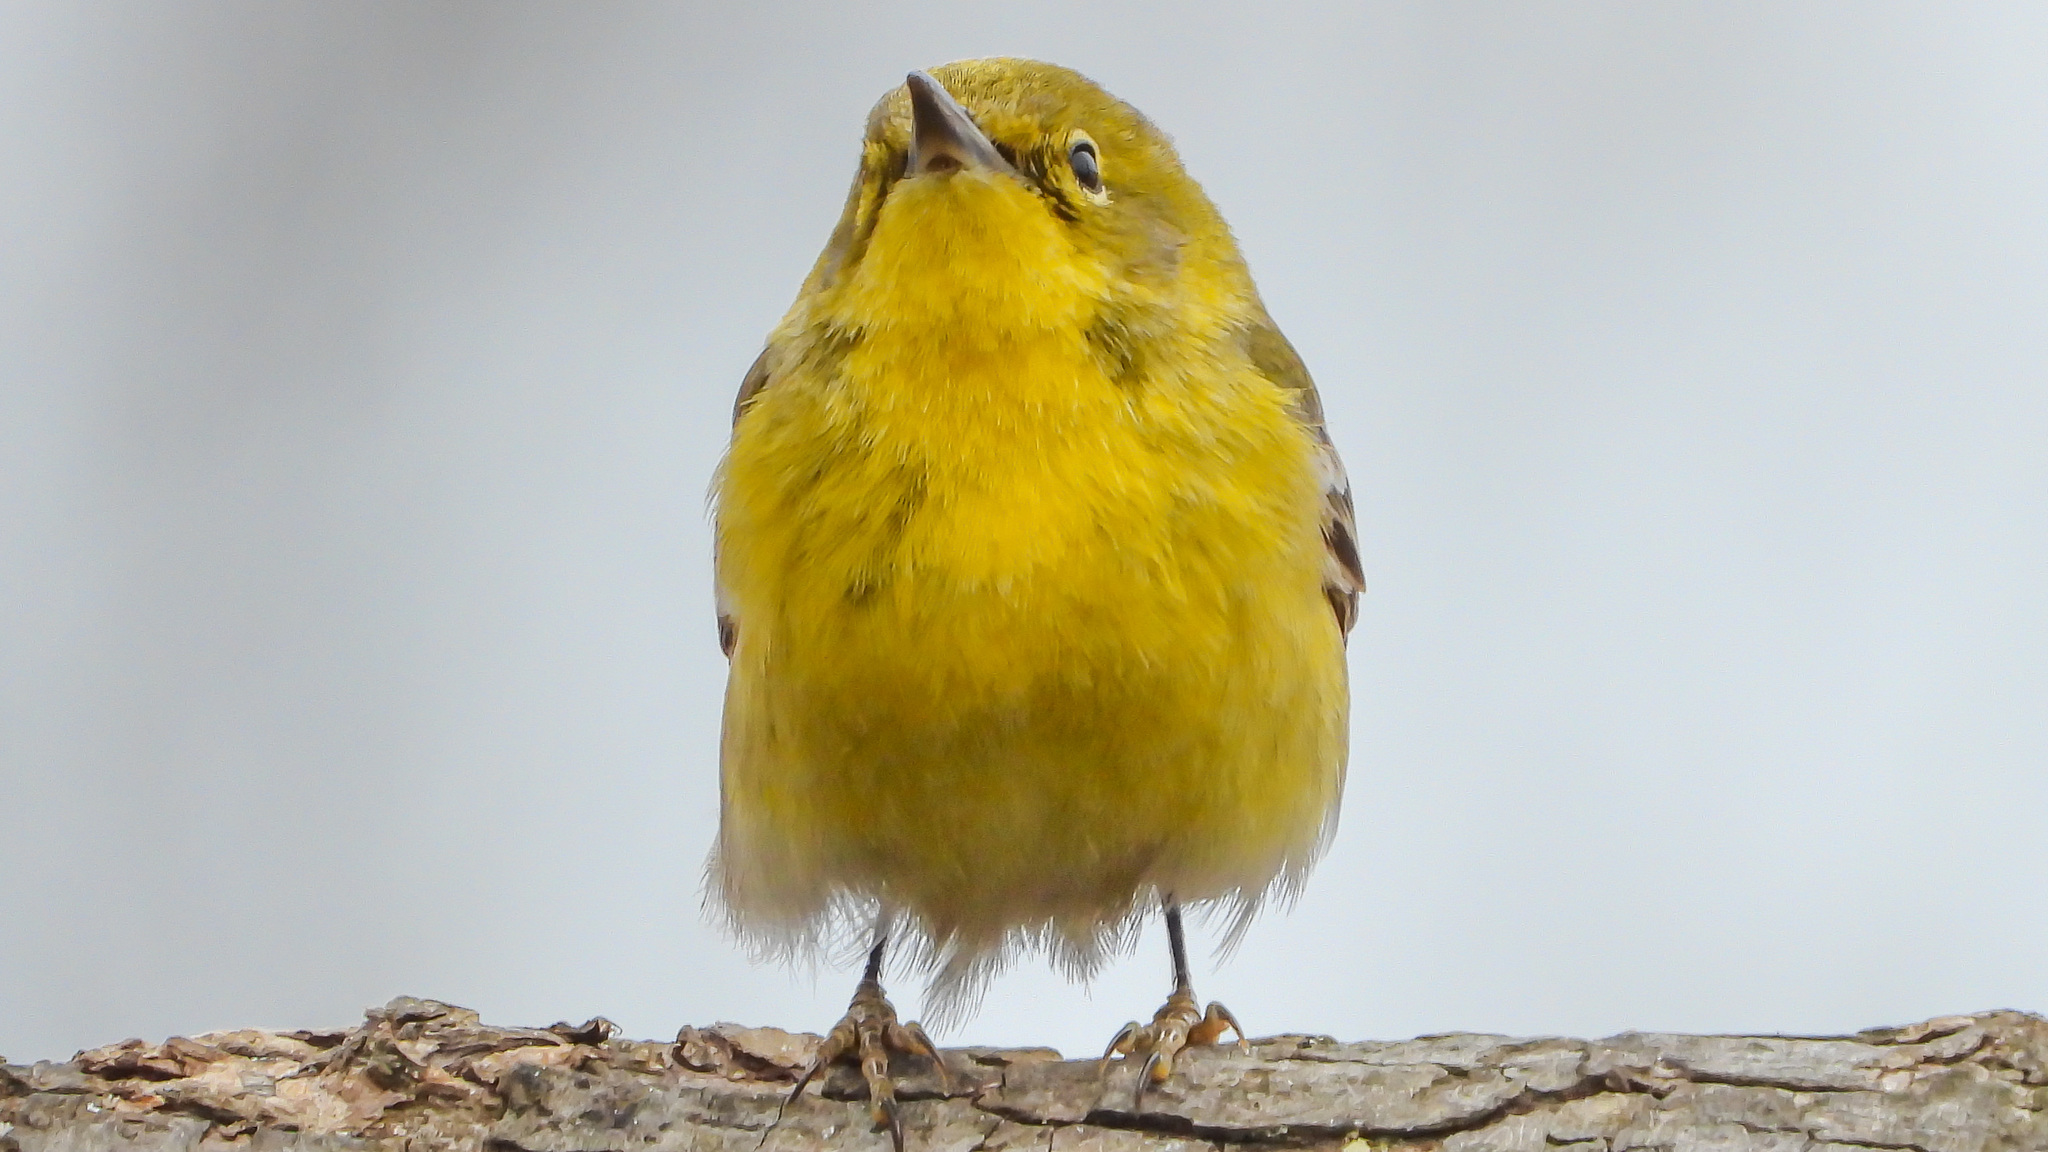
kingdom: Animalia
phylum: Chordata
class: Aves
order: Passeriformes
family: Parulidae
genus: Setophaga
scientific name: Setophaga pinus
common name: Pine warbler
